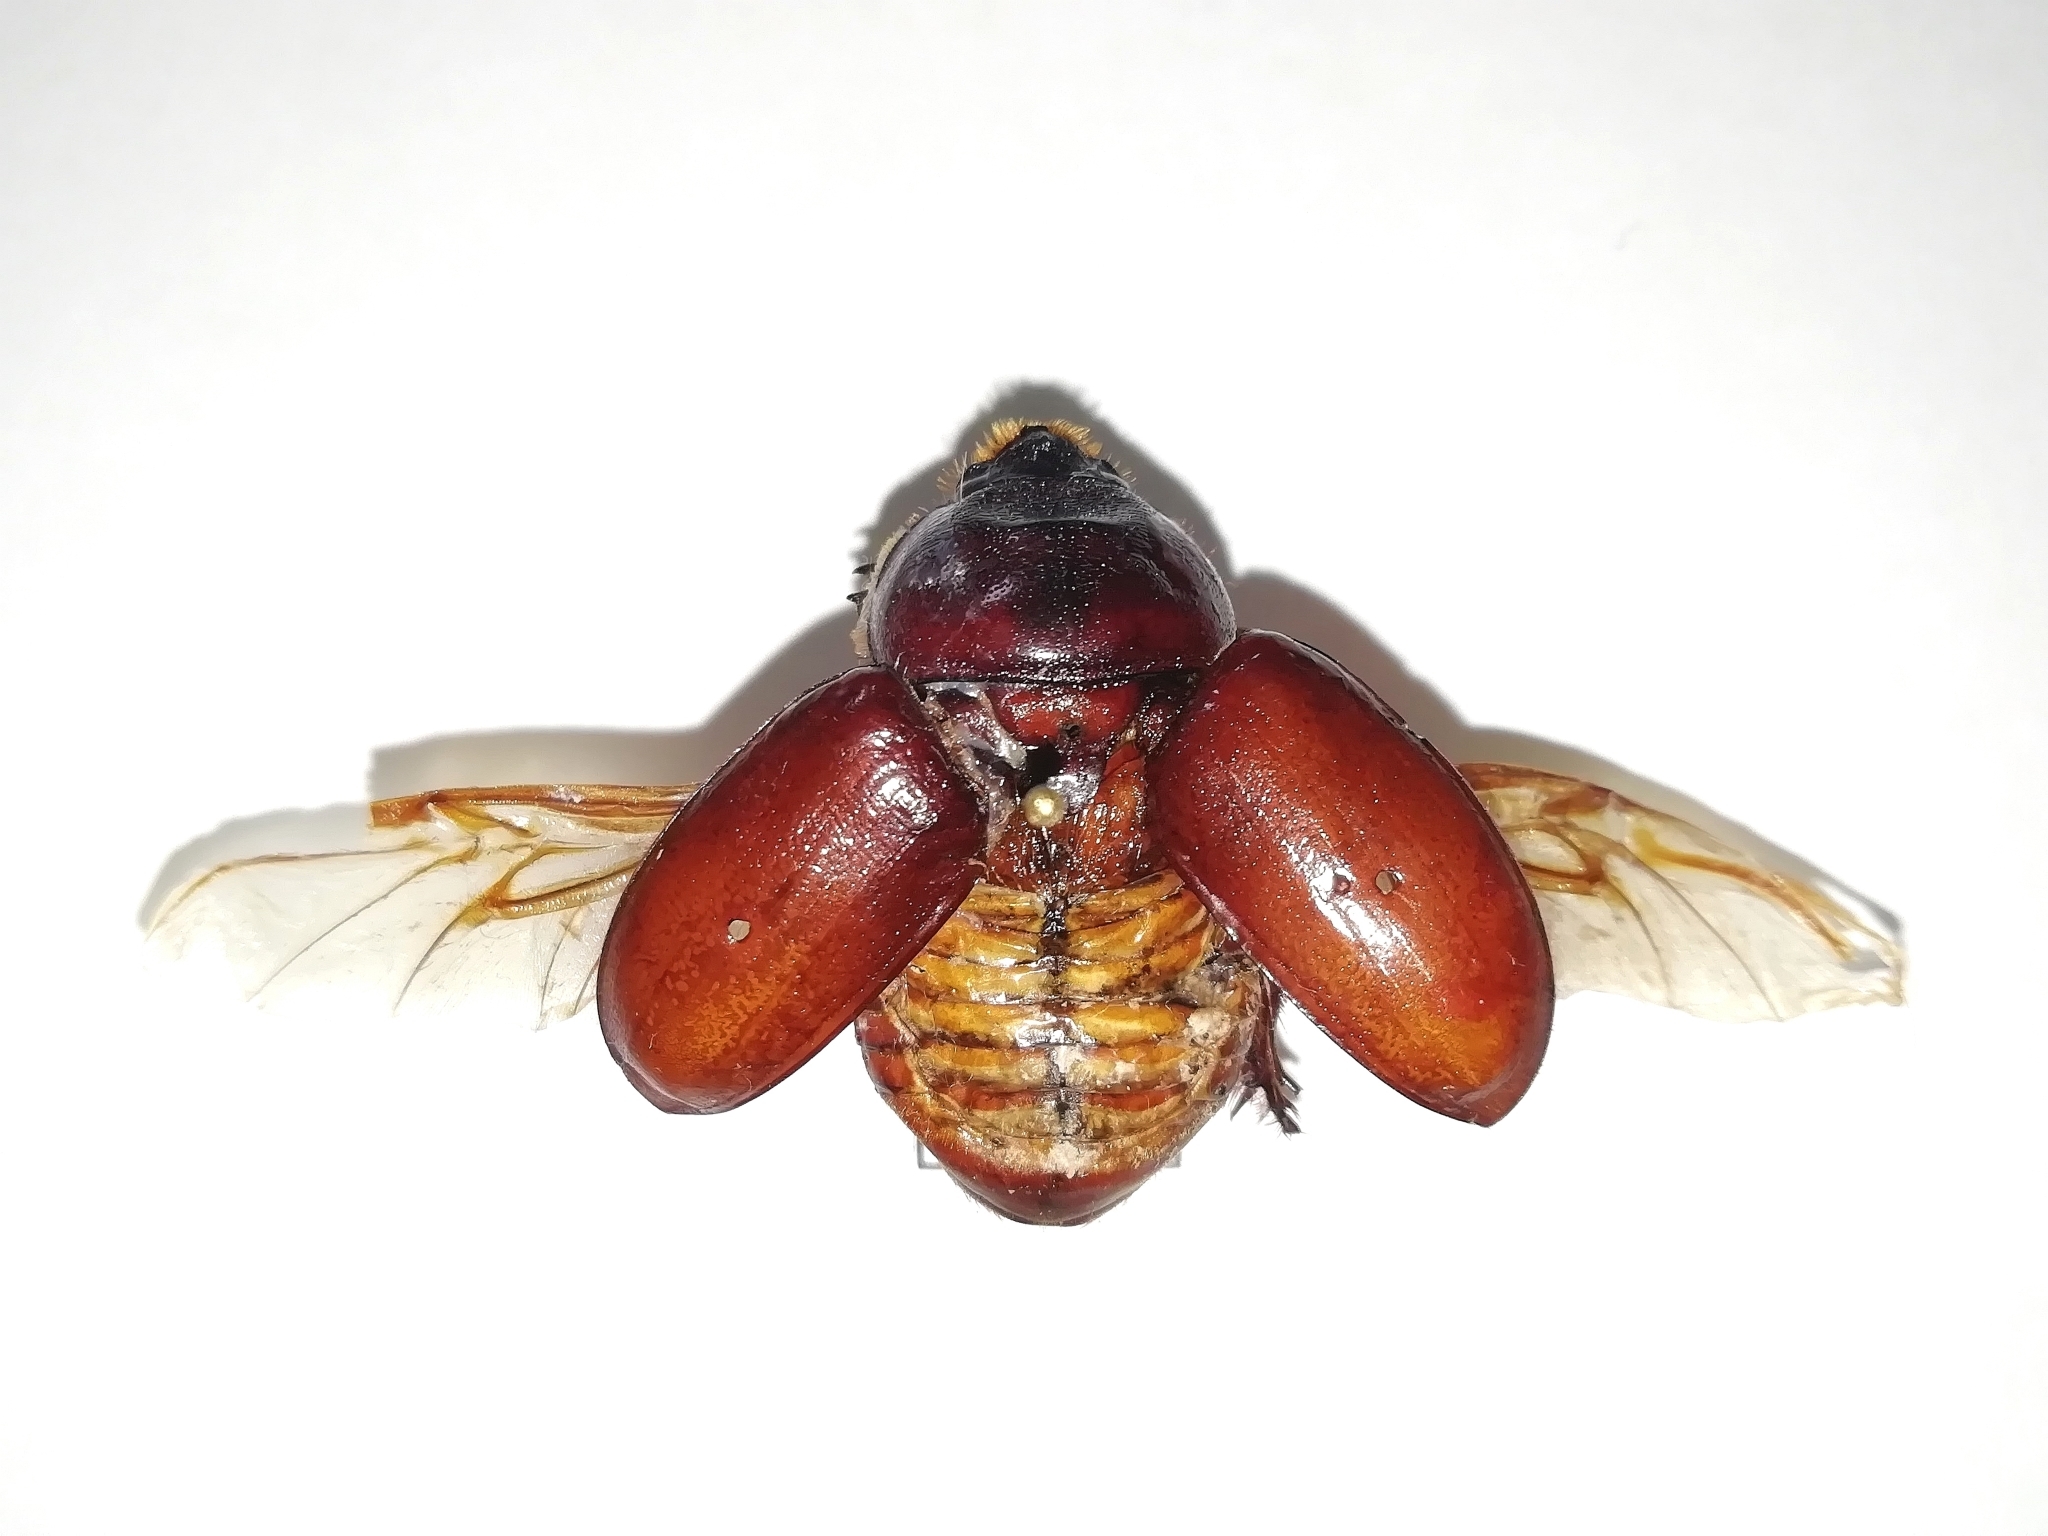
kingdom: Animalia
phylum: Arthropoda
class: Insecta
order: Coleoptera
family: Scarabaeidae
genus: Oryctes
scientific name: Oryctes nasicornis
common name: European rhinoceros beetle
